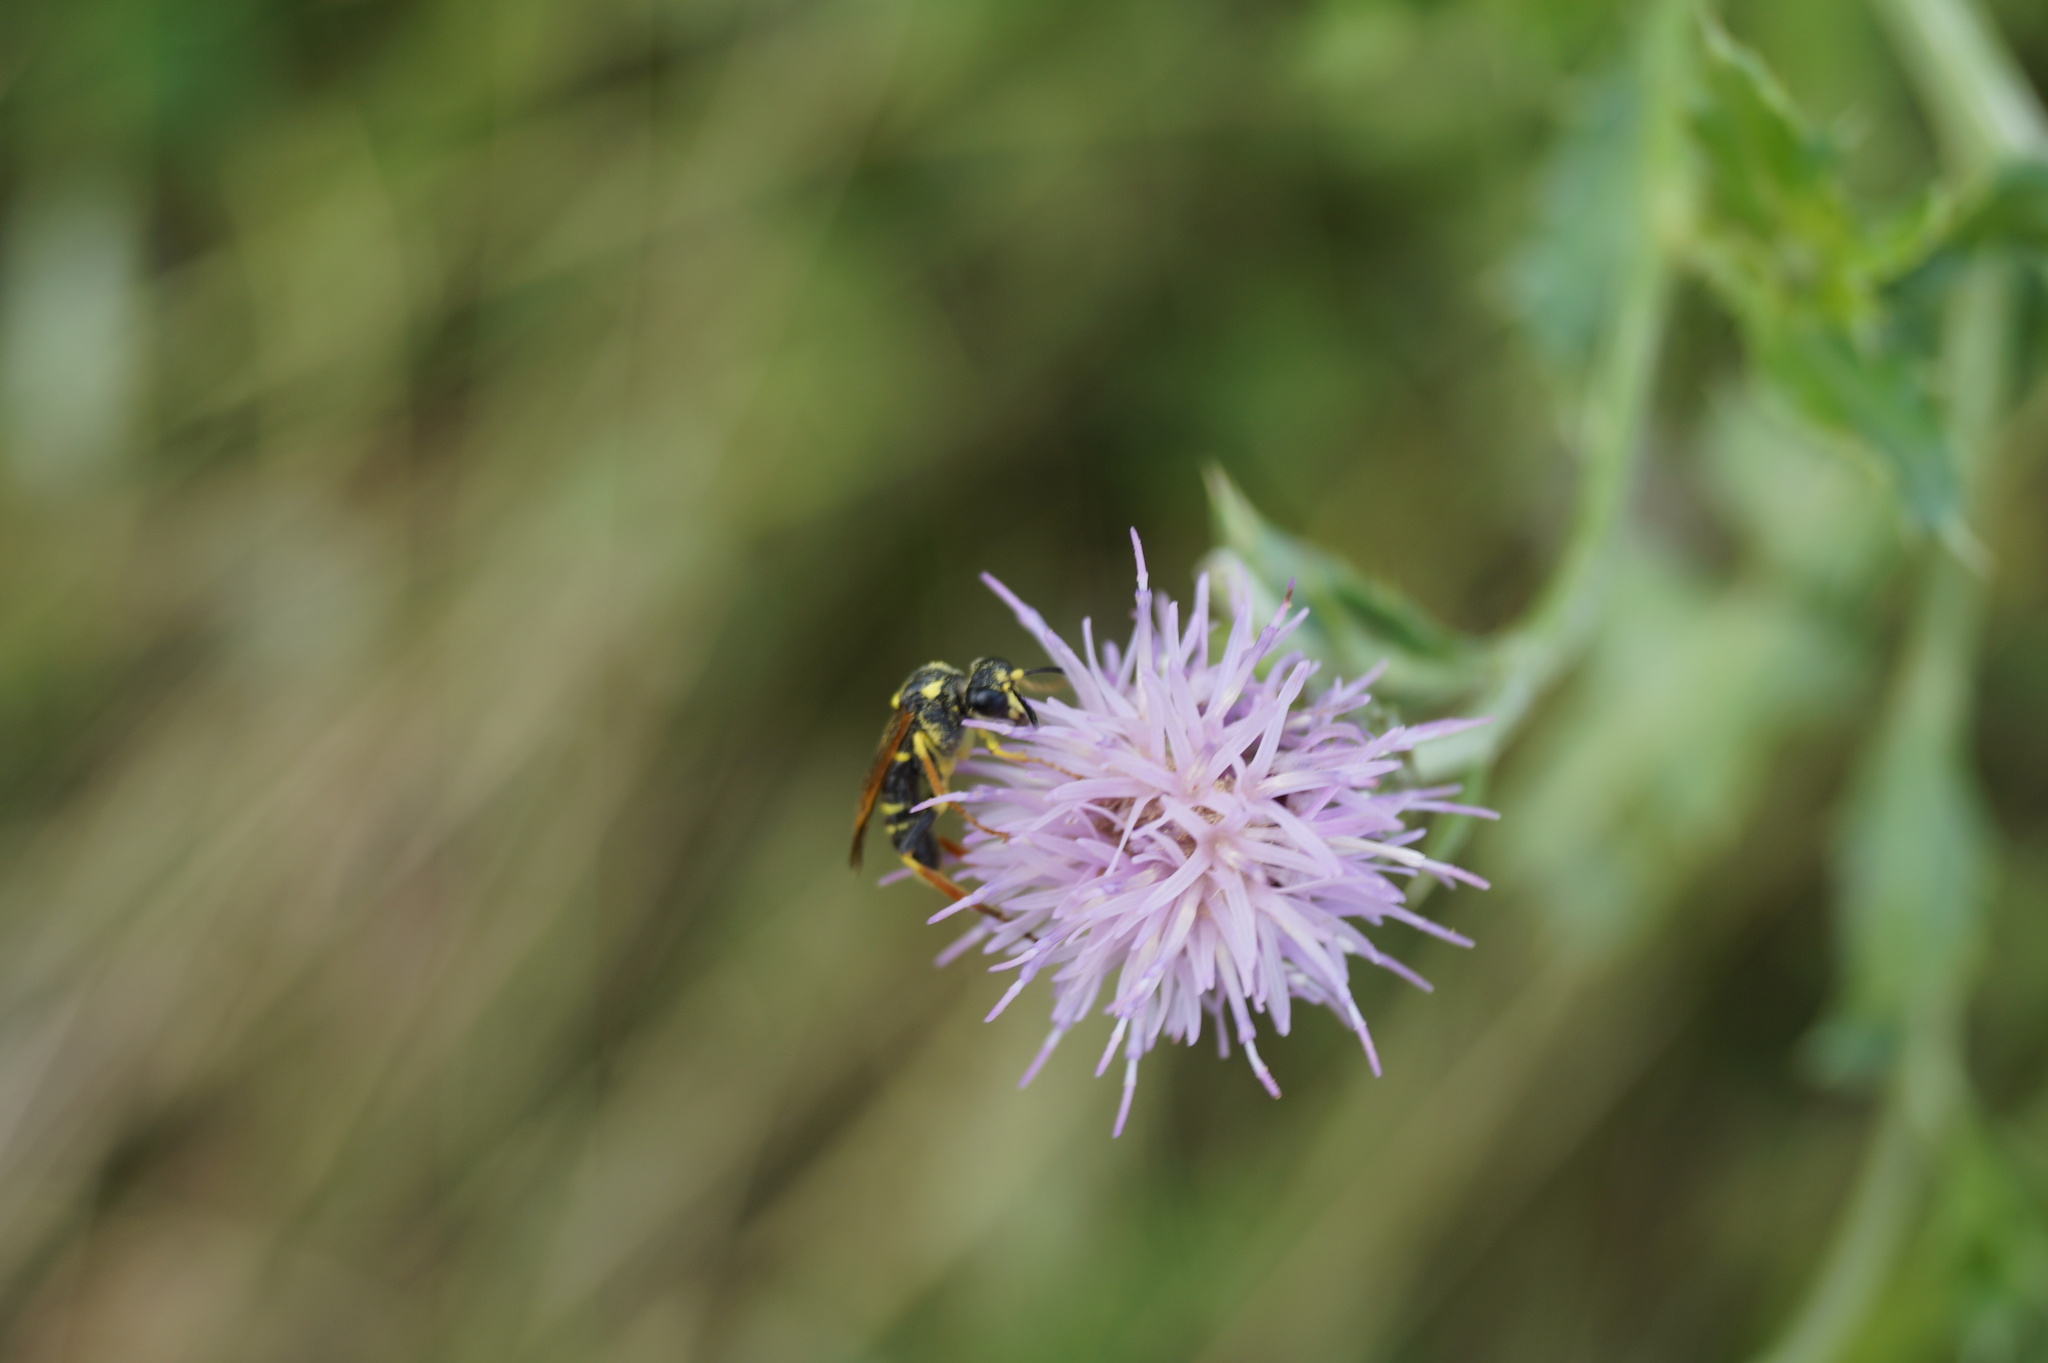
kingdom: Animalia
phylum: Arthropoda
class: Insecta
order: Hymenoptera
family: Tenthredinidae
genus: Tenthredo
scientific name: Tenthredo omissa
